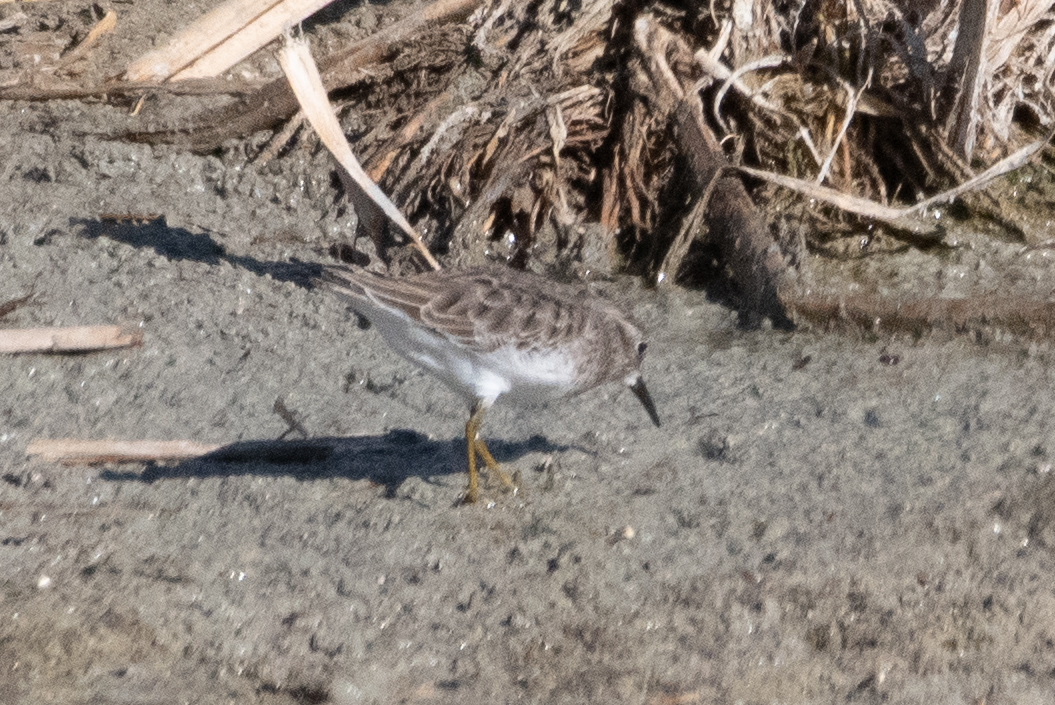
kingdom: Animalia
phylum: Chordata
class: Aves
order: Charadriiformes
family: Scolopacidae
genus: Calidris
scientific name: Calidris minutilla
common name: Least sandpiper
